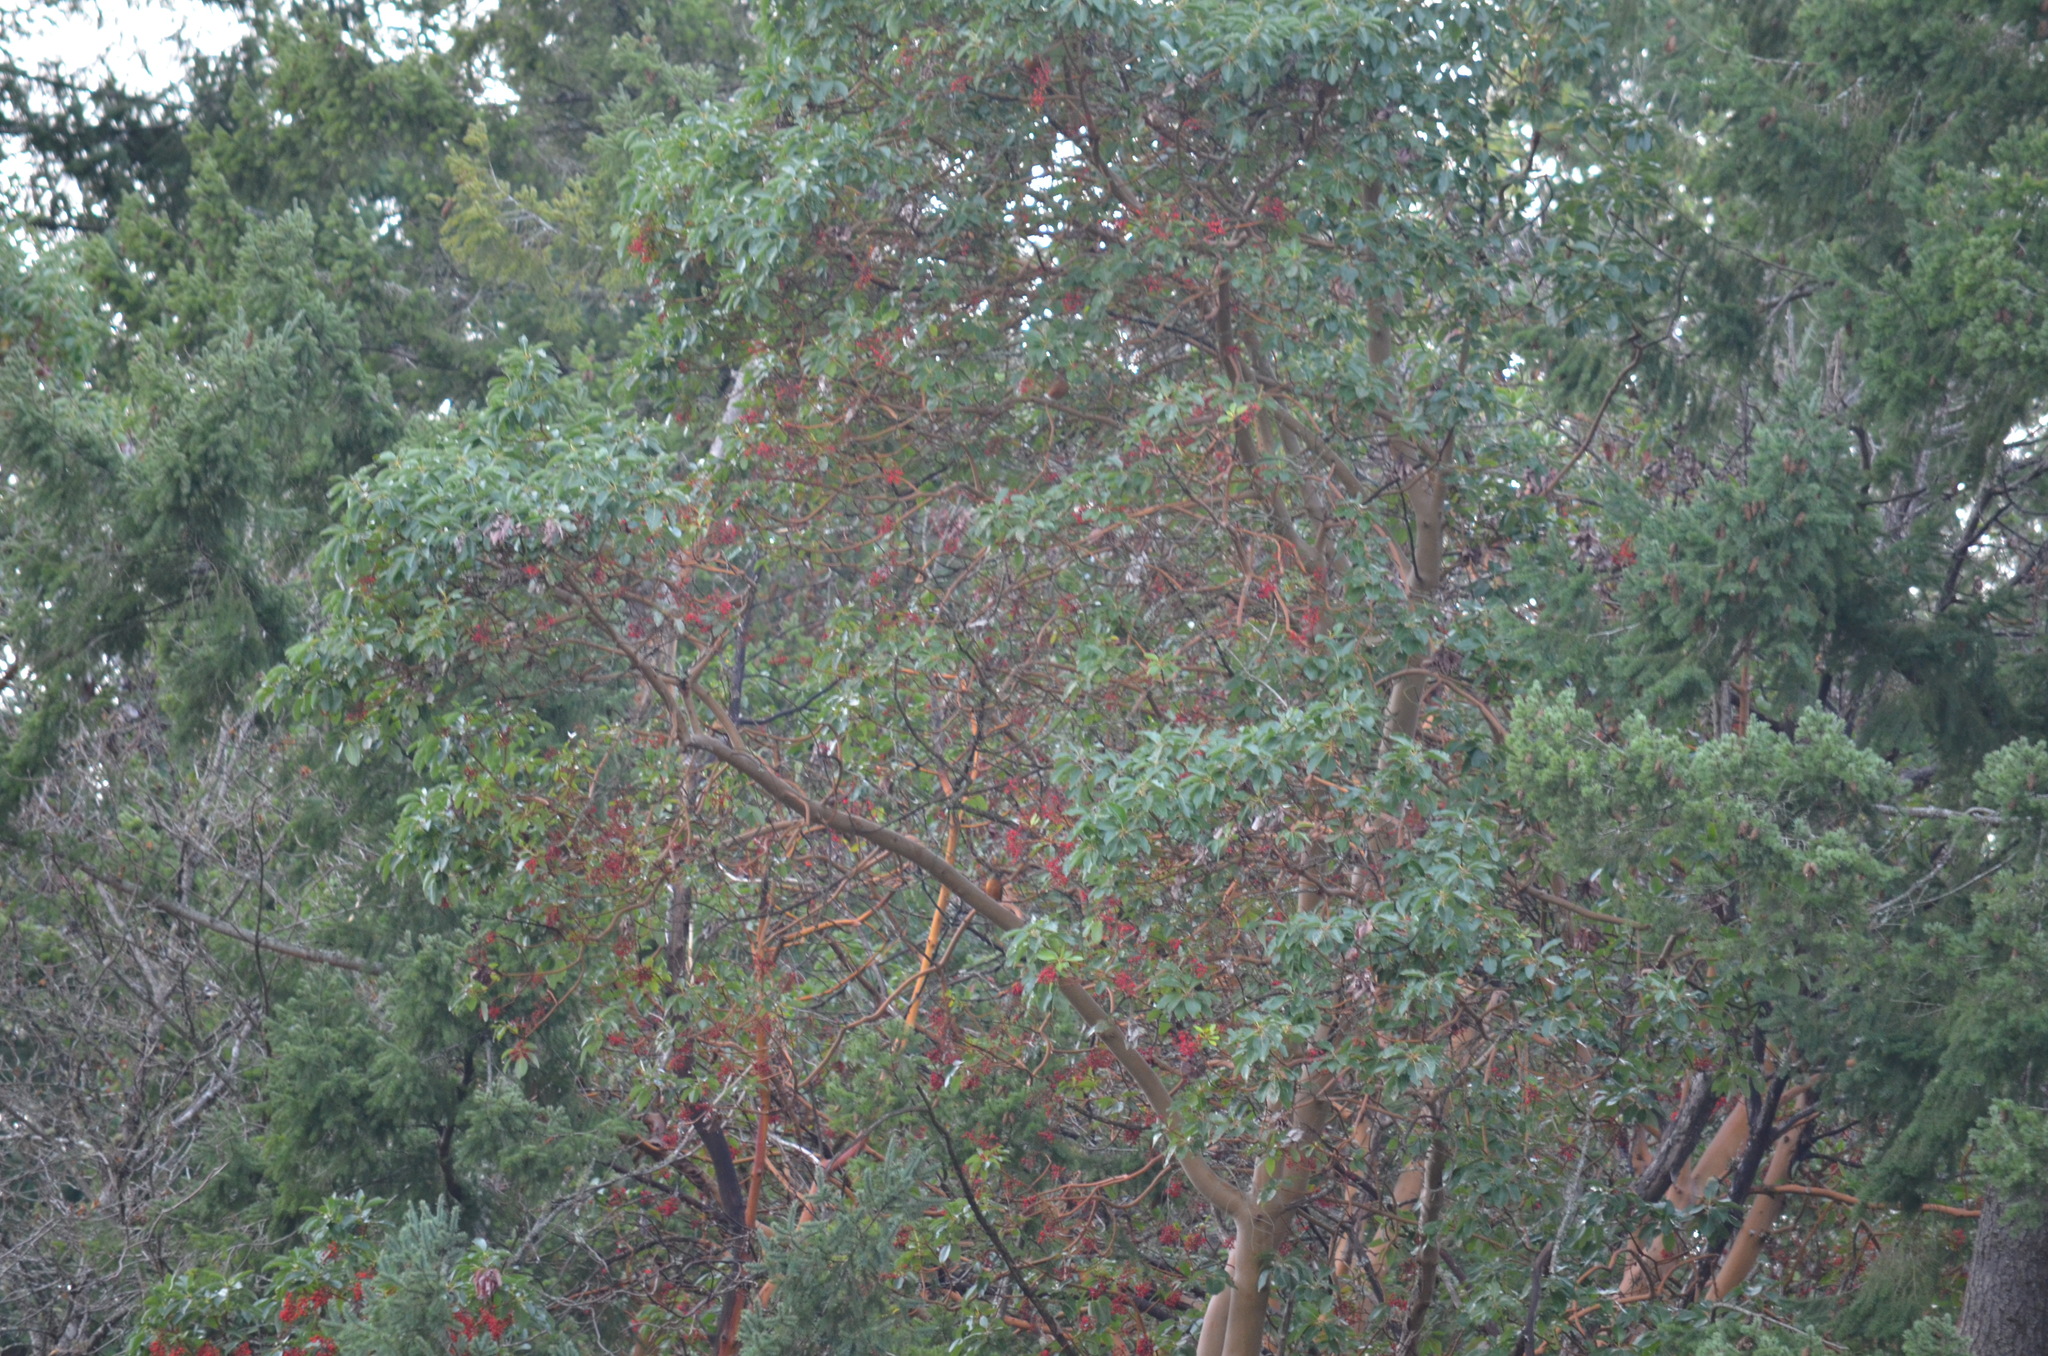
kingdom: Plantae
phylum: Tracheophyta
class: Magnoliopsida
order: Ericales
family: Ericaceae
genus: Arbutus
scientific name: Arbutus menziesii
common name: Pacific madrone
